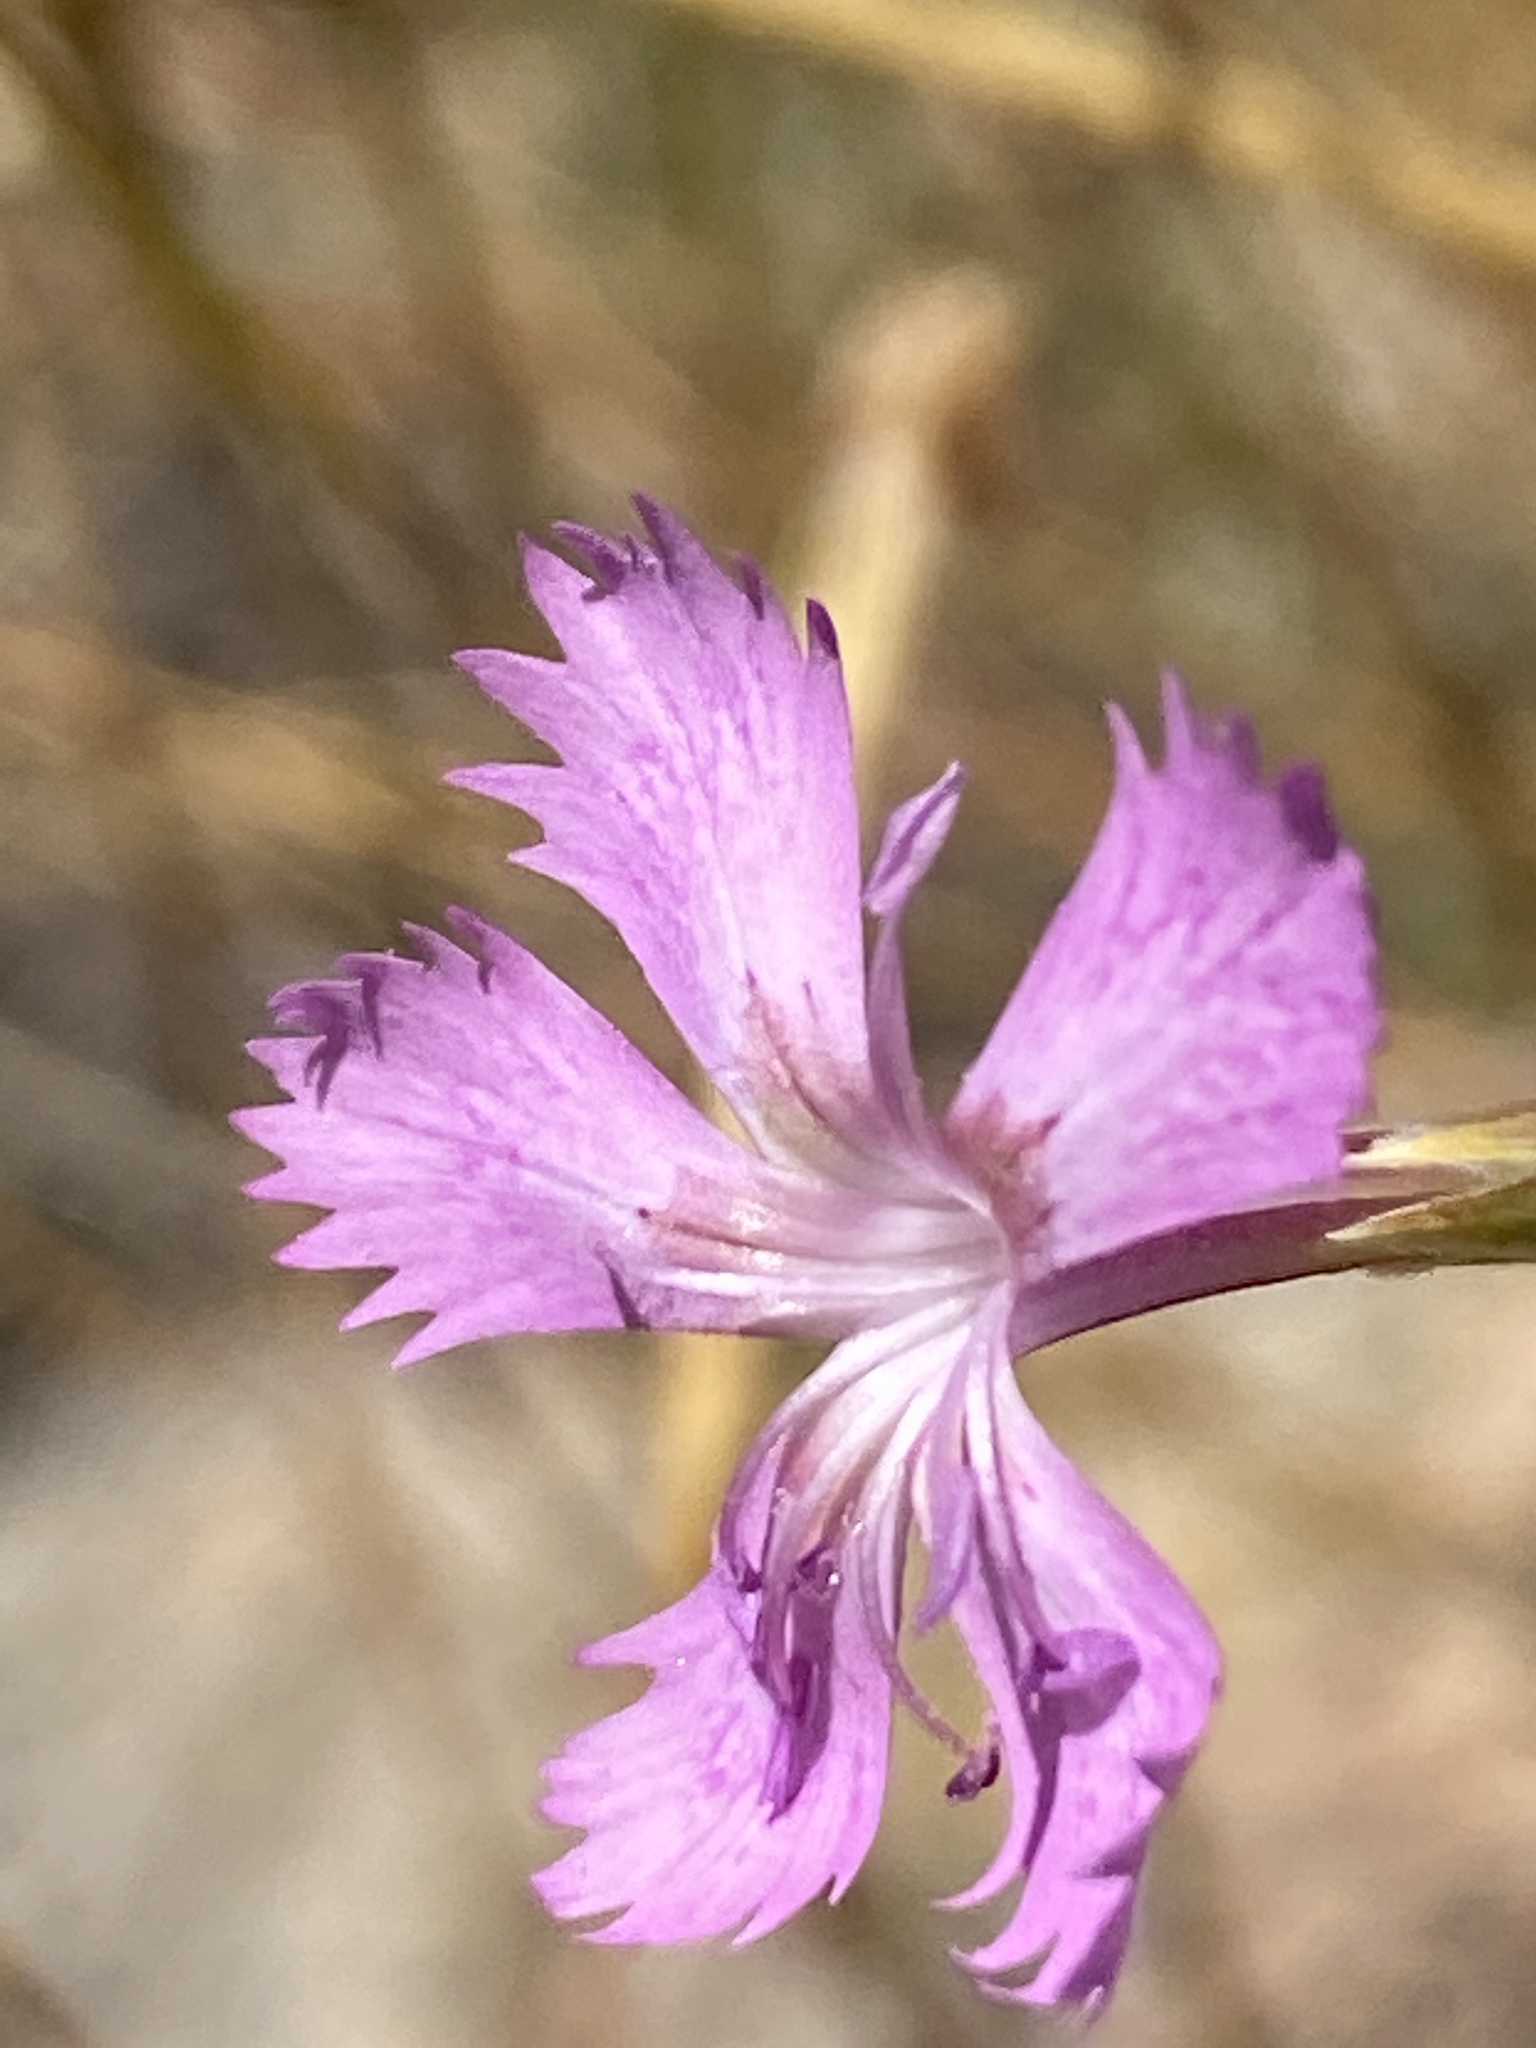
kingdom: Plantae
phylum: Tracheophyta
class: Magnoliopsida
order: Caryophyllales
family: Caryophyllaceae
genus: Dianthus
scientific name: Dianthus lusitanus
